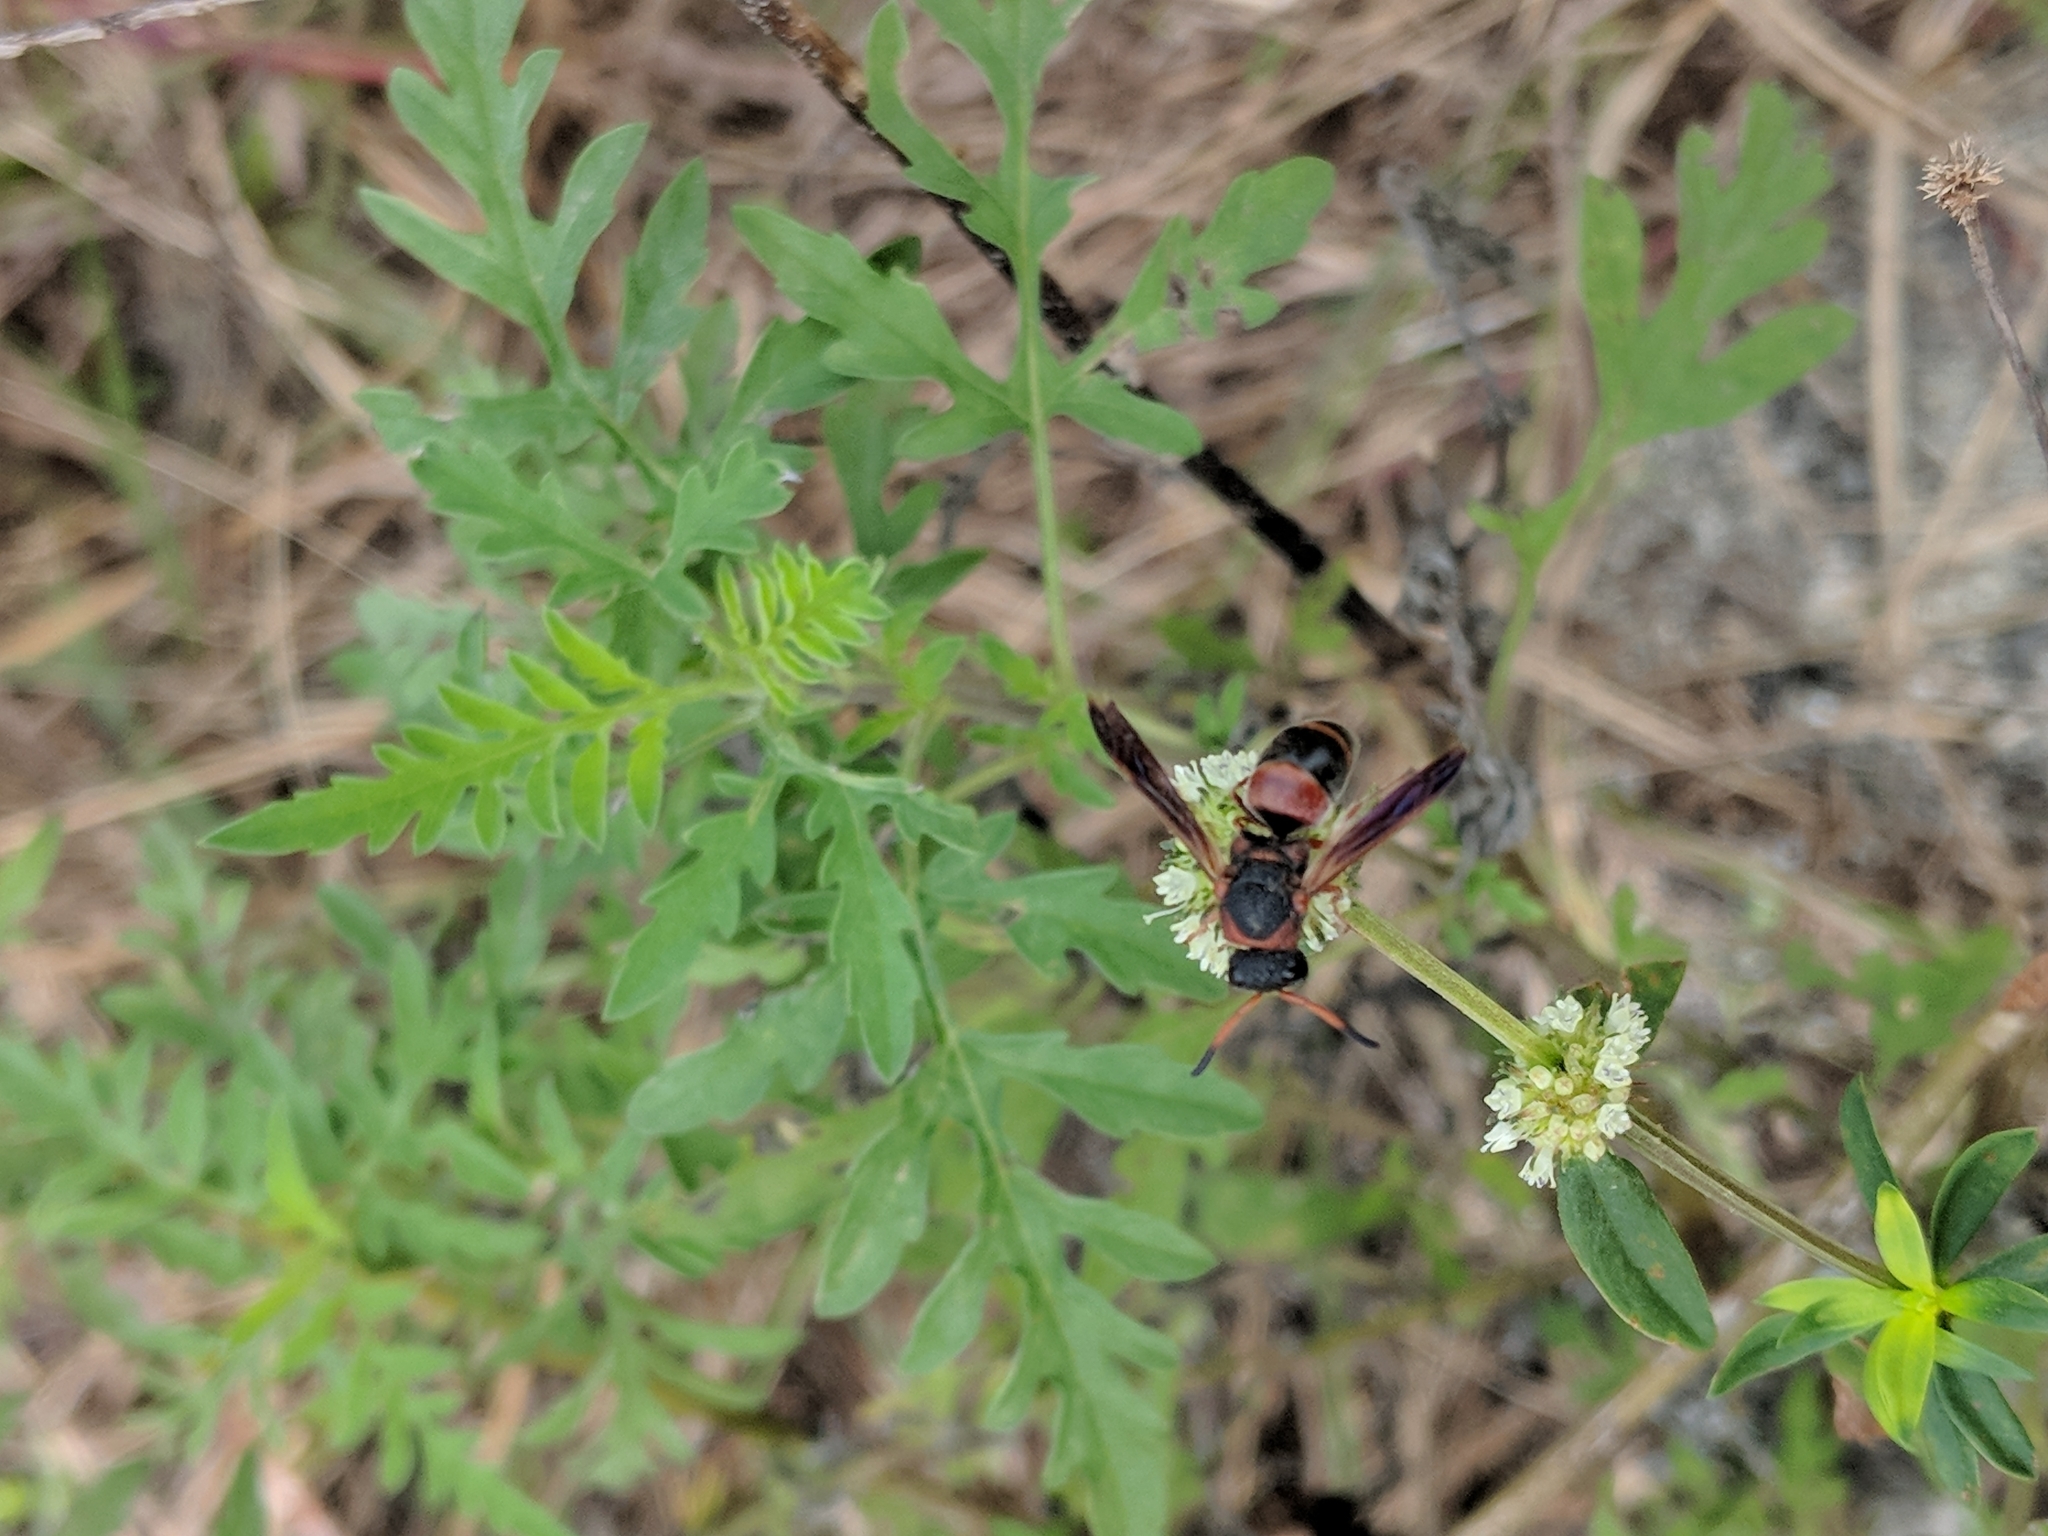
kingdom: Animalia
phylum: Arthropoda
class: Insecta
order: Hymenoptera
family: Eumenidae
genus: Pachodynerus
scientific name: Pachodynerus erynnis
